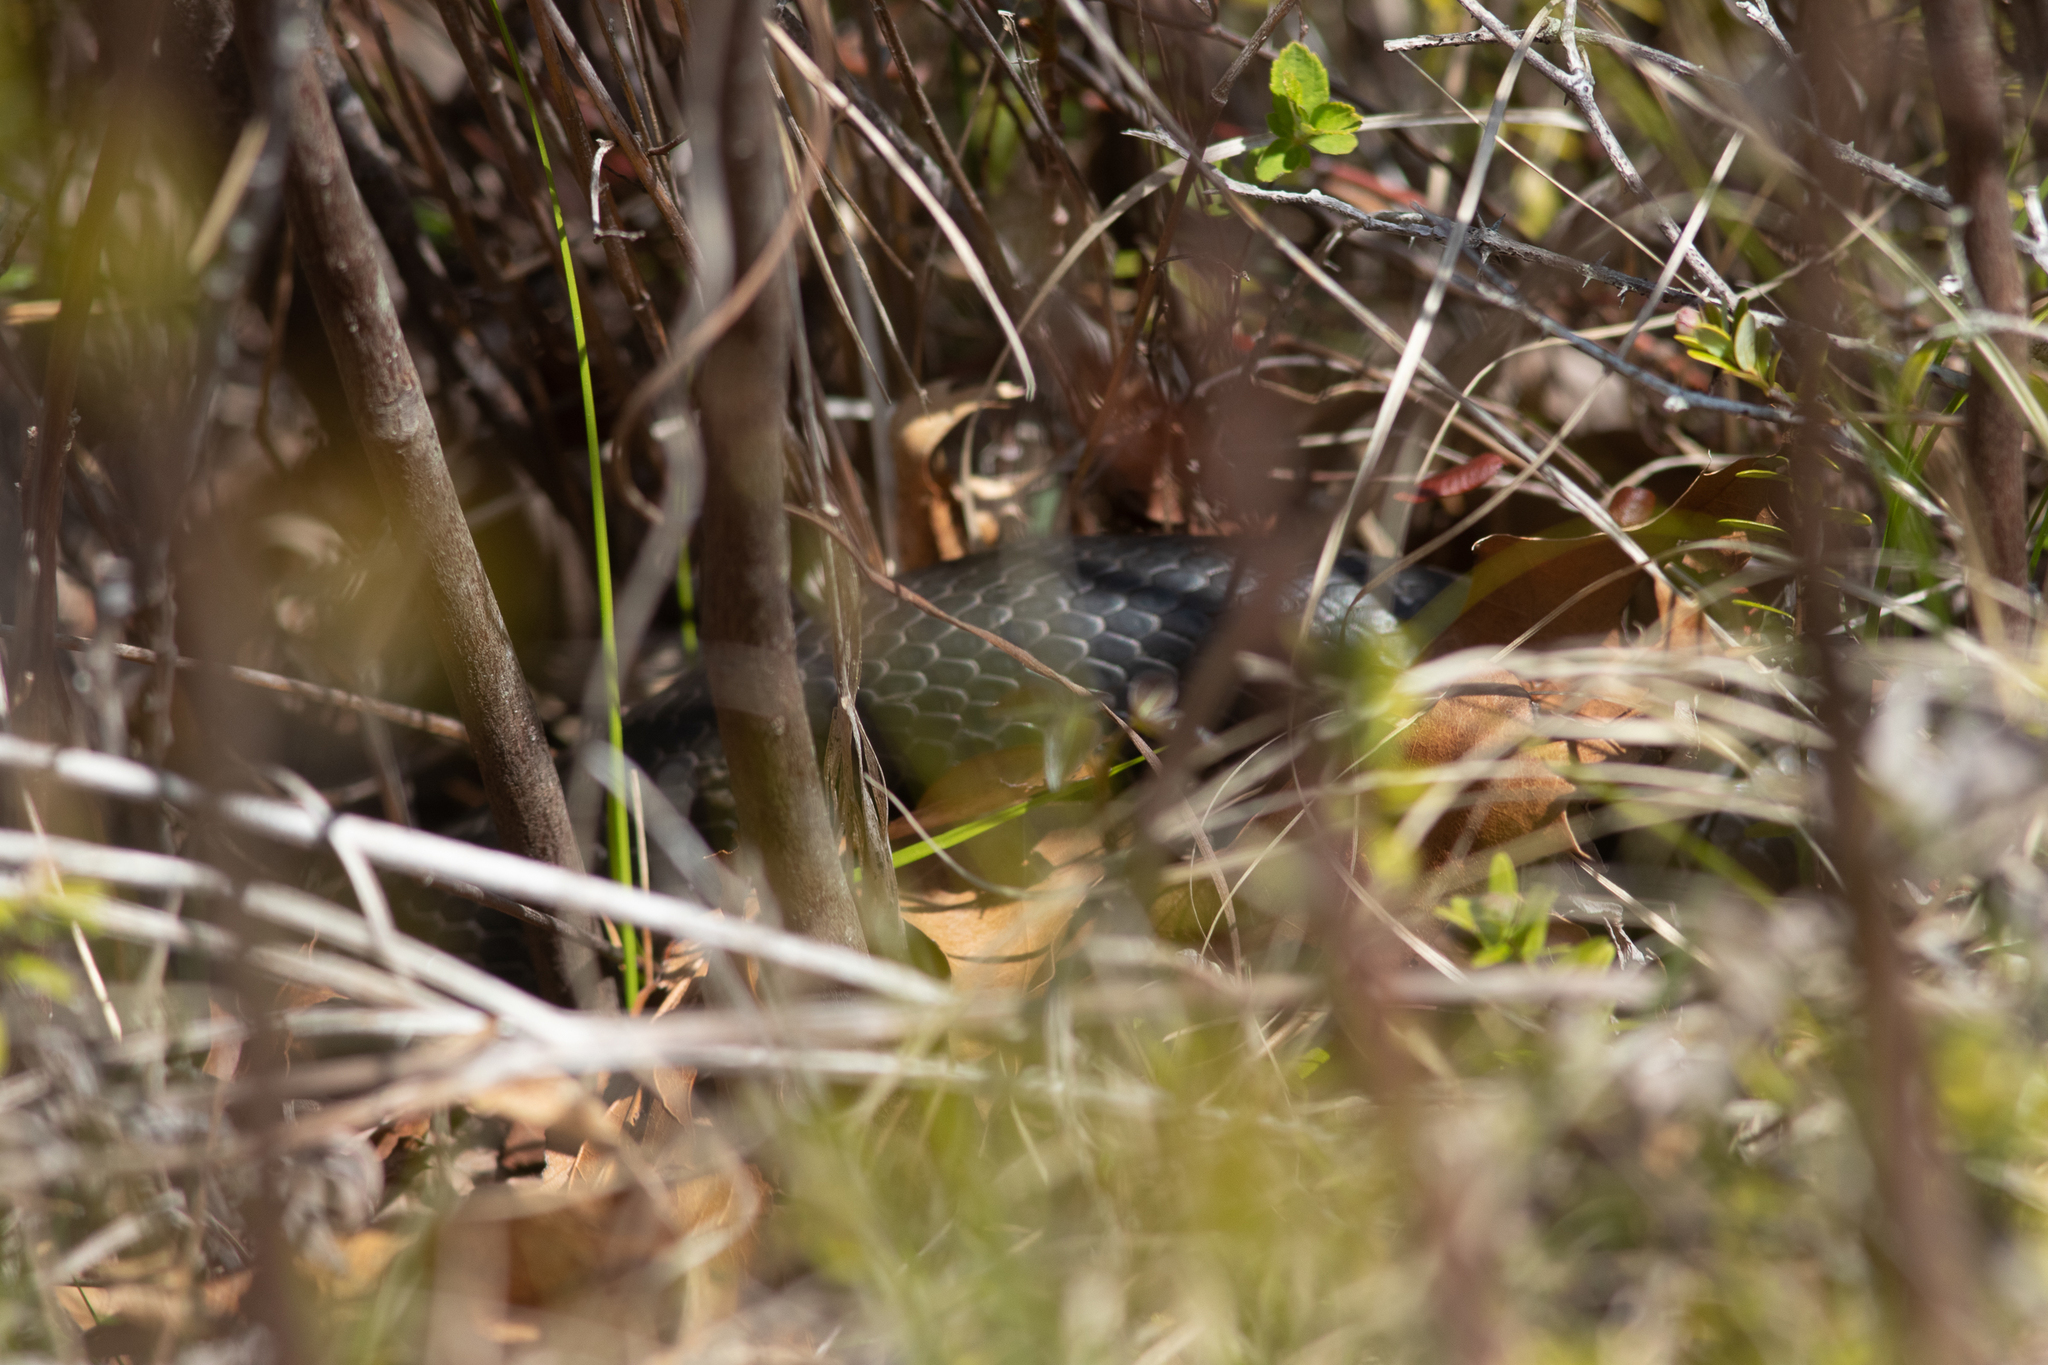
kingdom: Animalia
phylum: Chordata
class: Squamata
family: Colubridae
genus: Coluber
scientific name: Coluber constrictor
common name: Eastern racer
